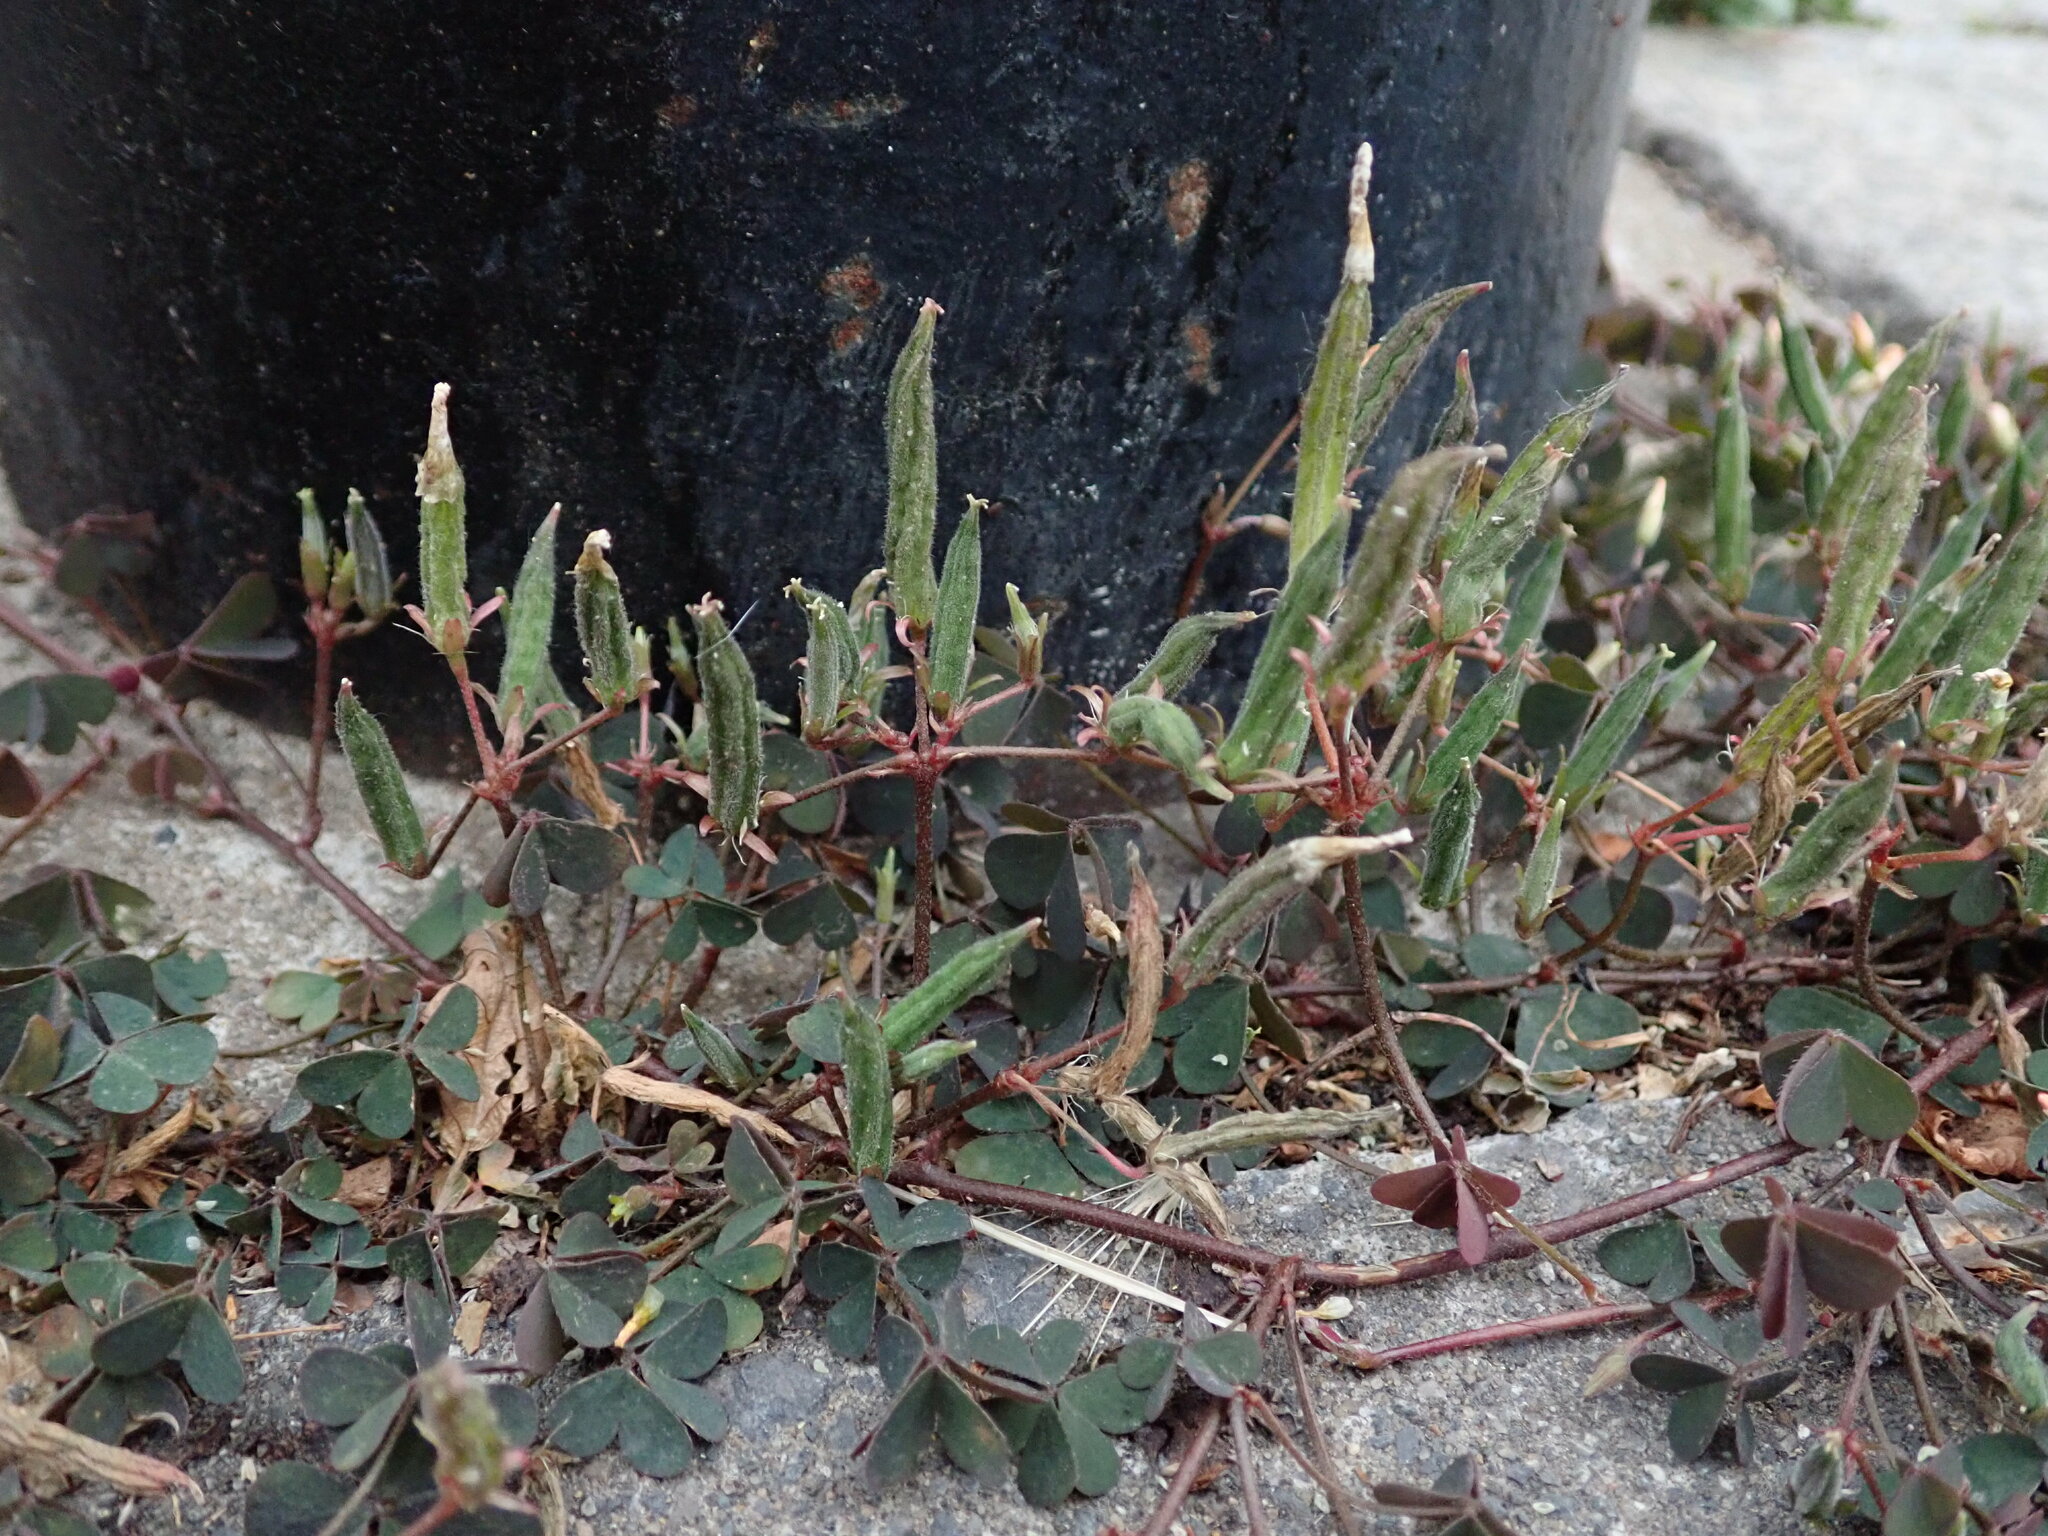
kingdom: Plantae
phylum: Tracheophyta
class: Magnoliopsida
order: Oxalidales
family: Oxalidaceae
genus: Oxalis
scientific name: Oxalis corniculata
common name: Procumbent yellow-sorrel
